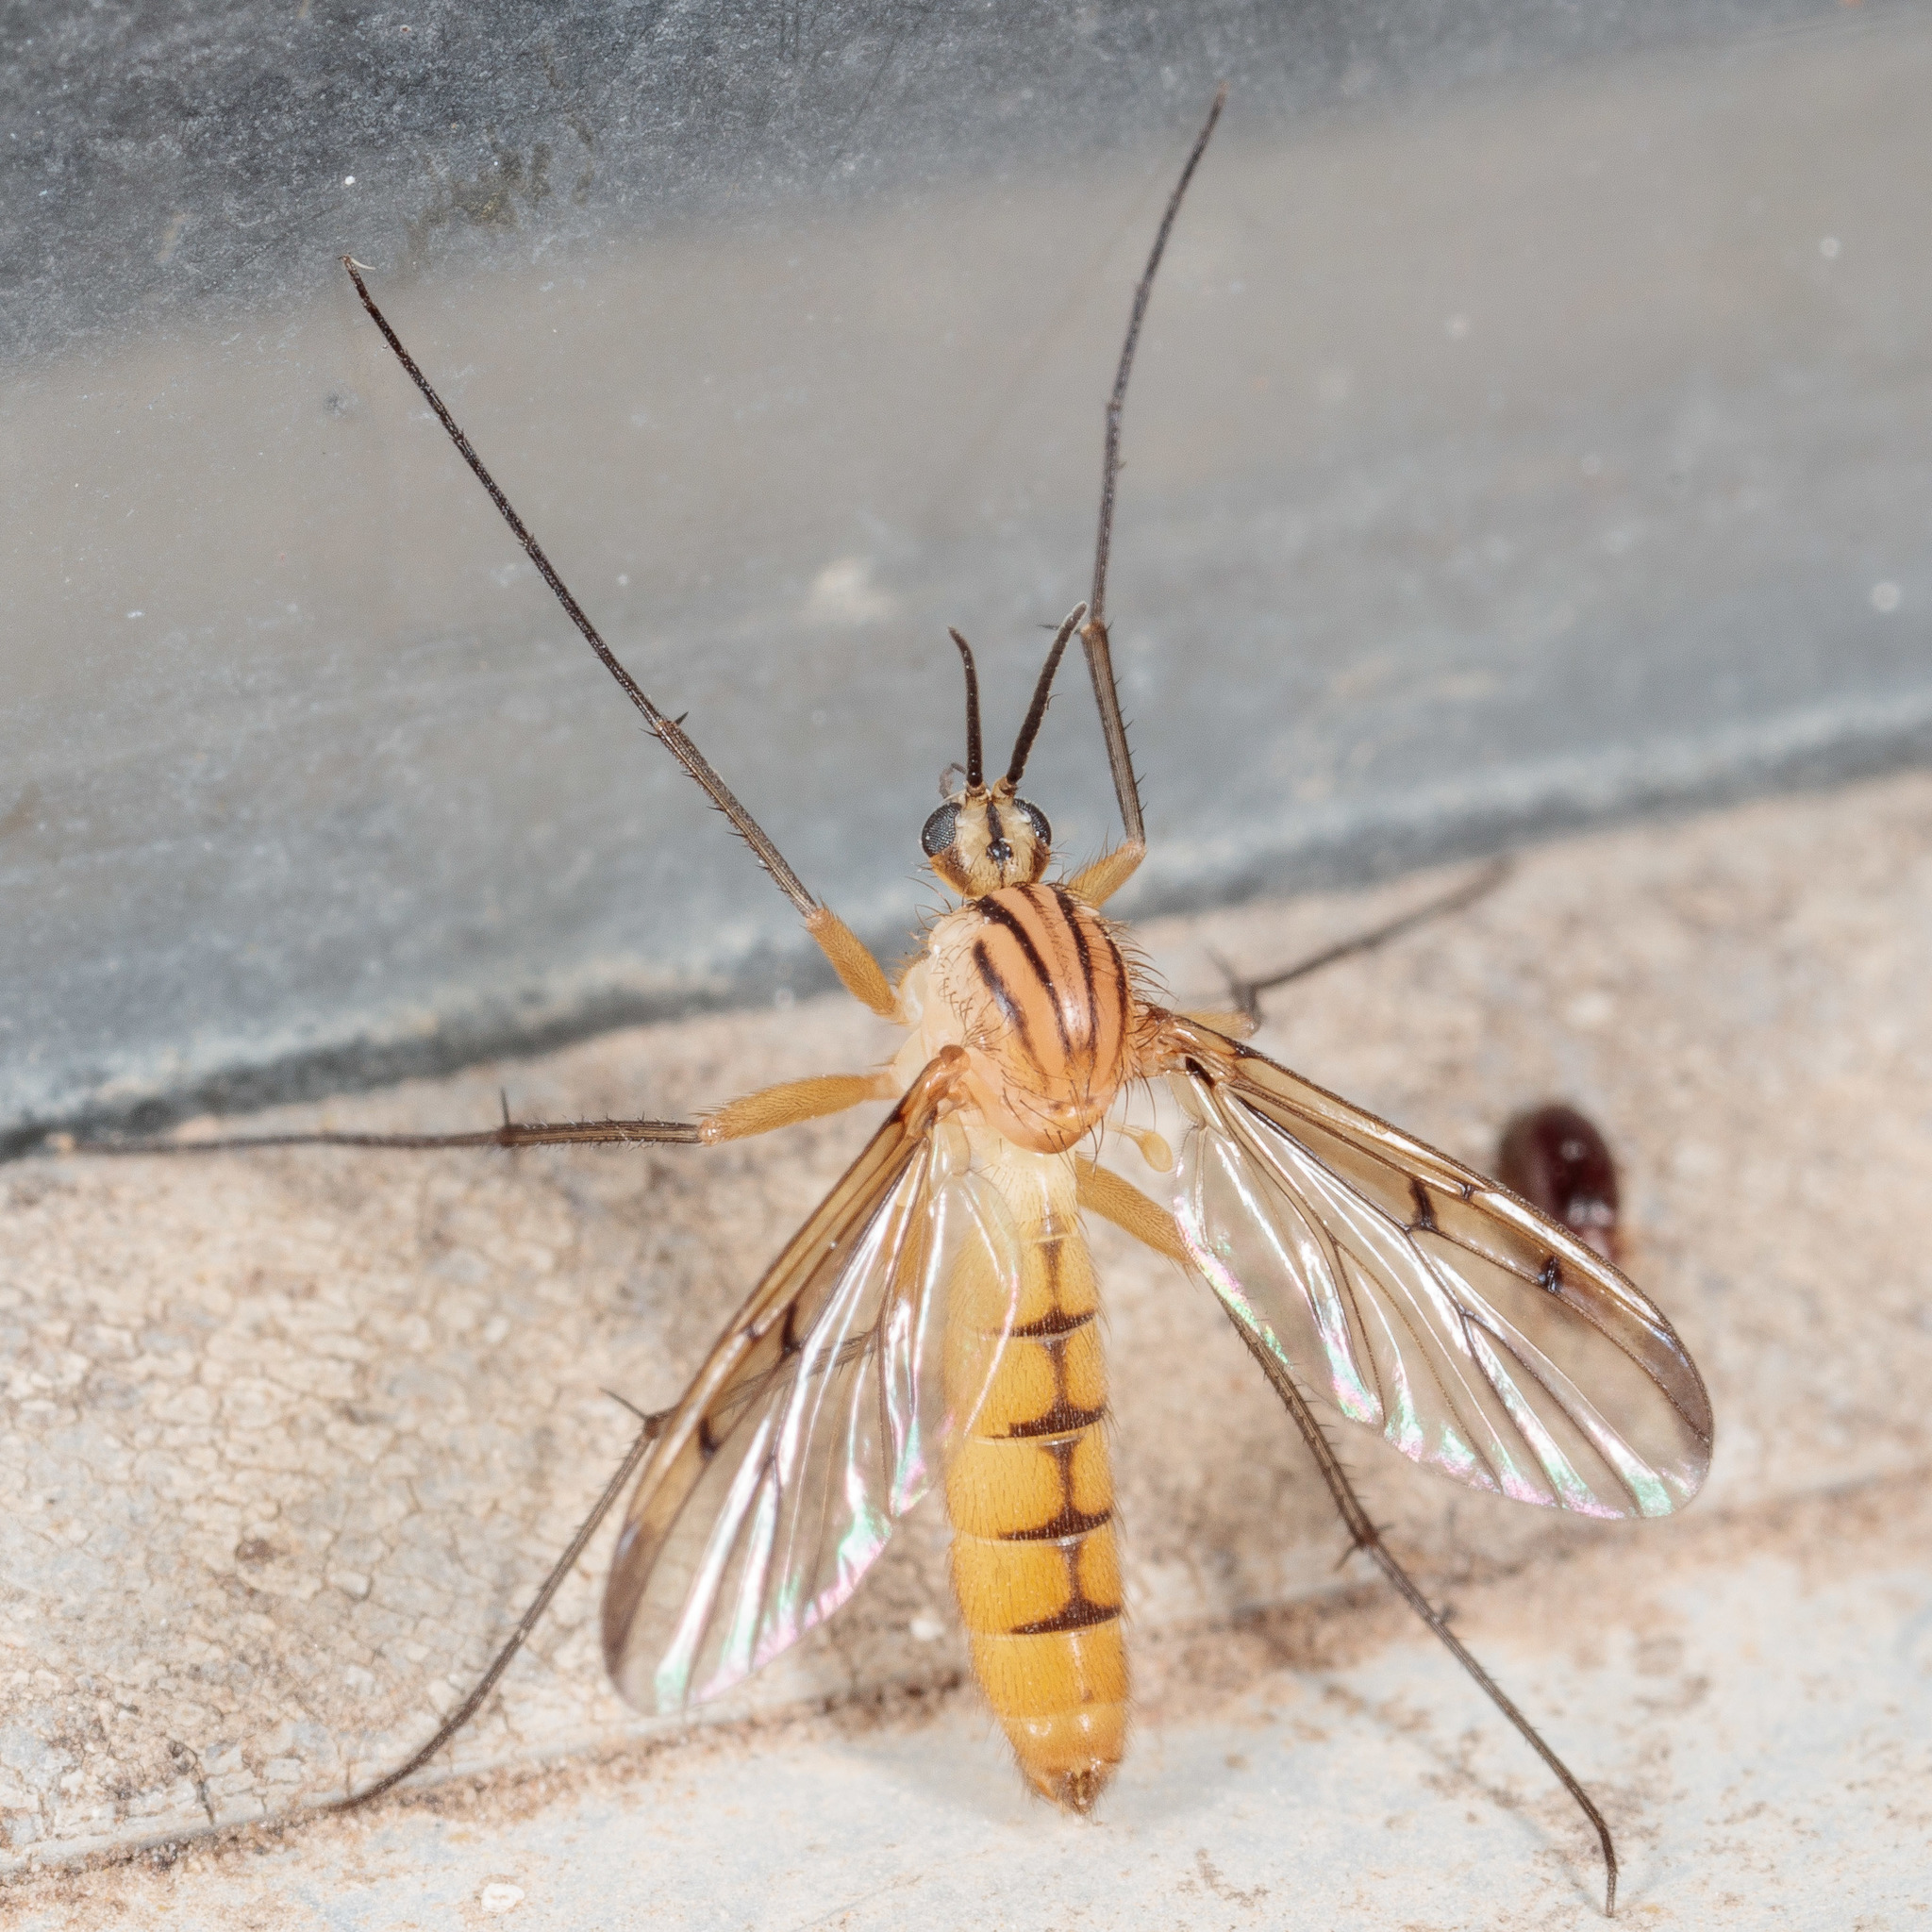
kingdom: Animalia
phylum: Arthropoda
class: Insecta
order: Diptera
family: Mycetophilidae
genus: Neoempheria
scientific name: Neoempheria balioptera
